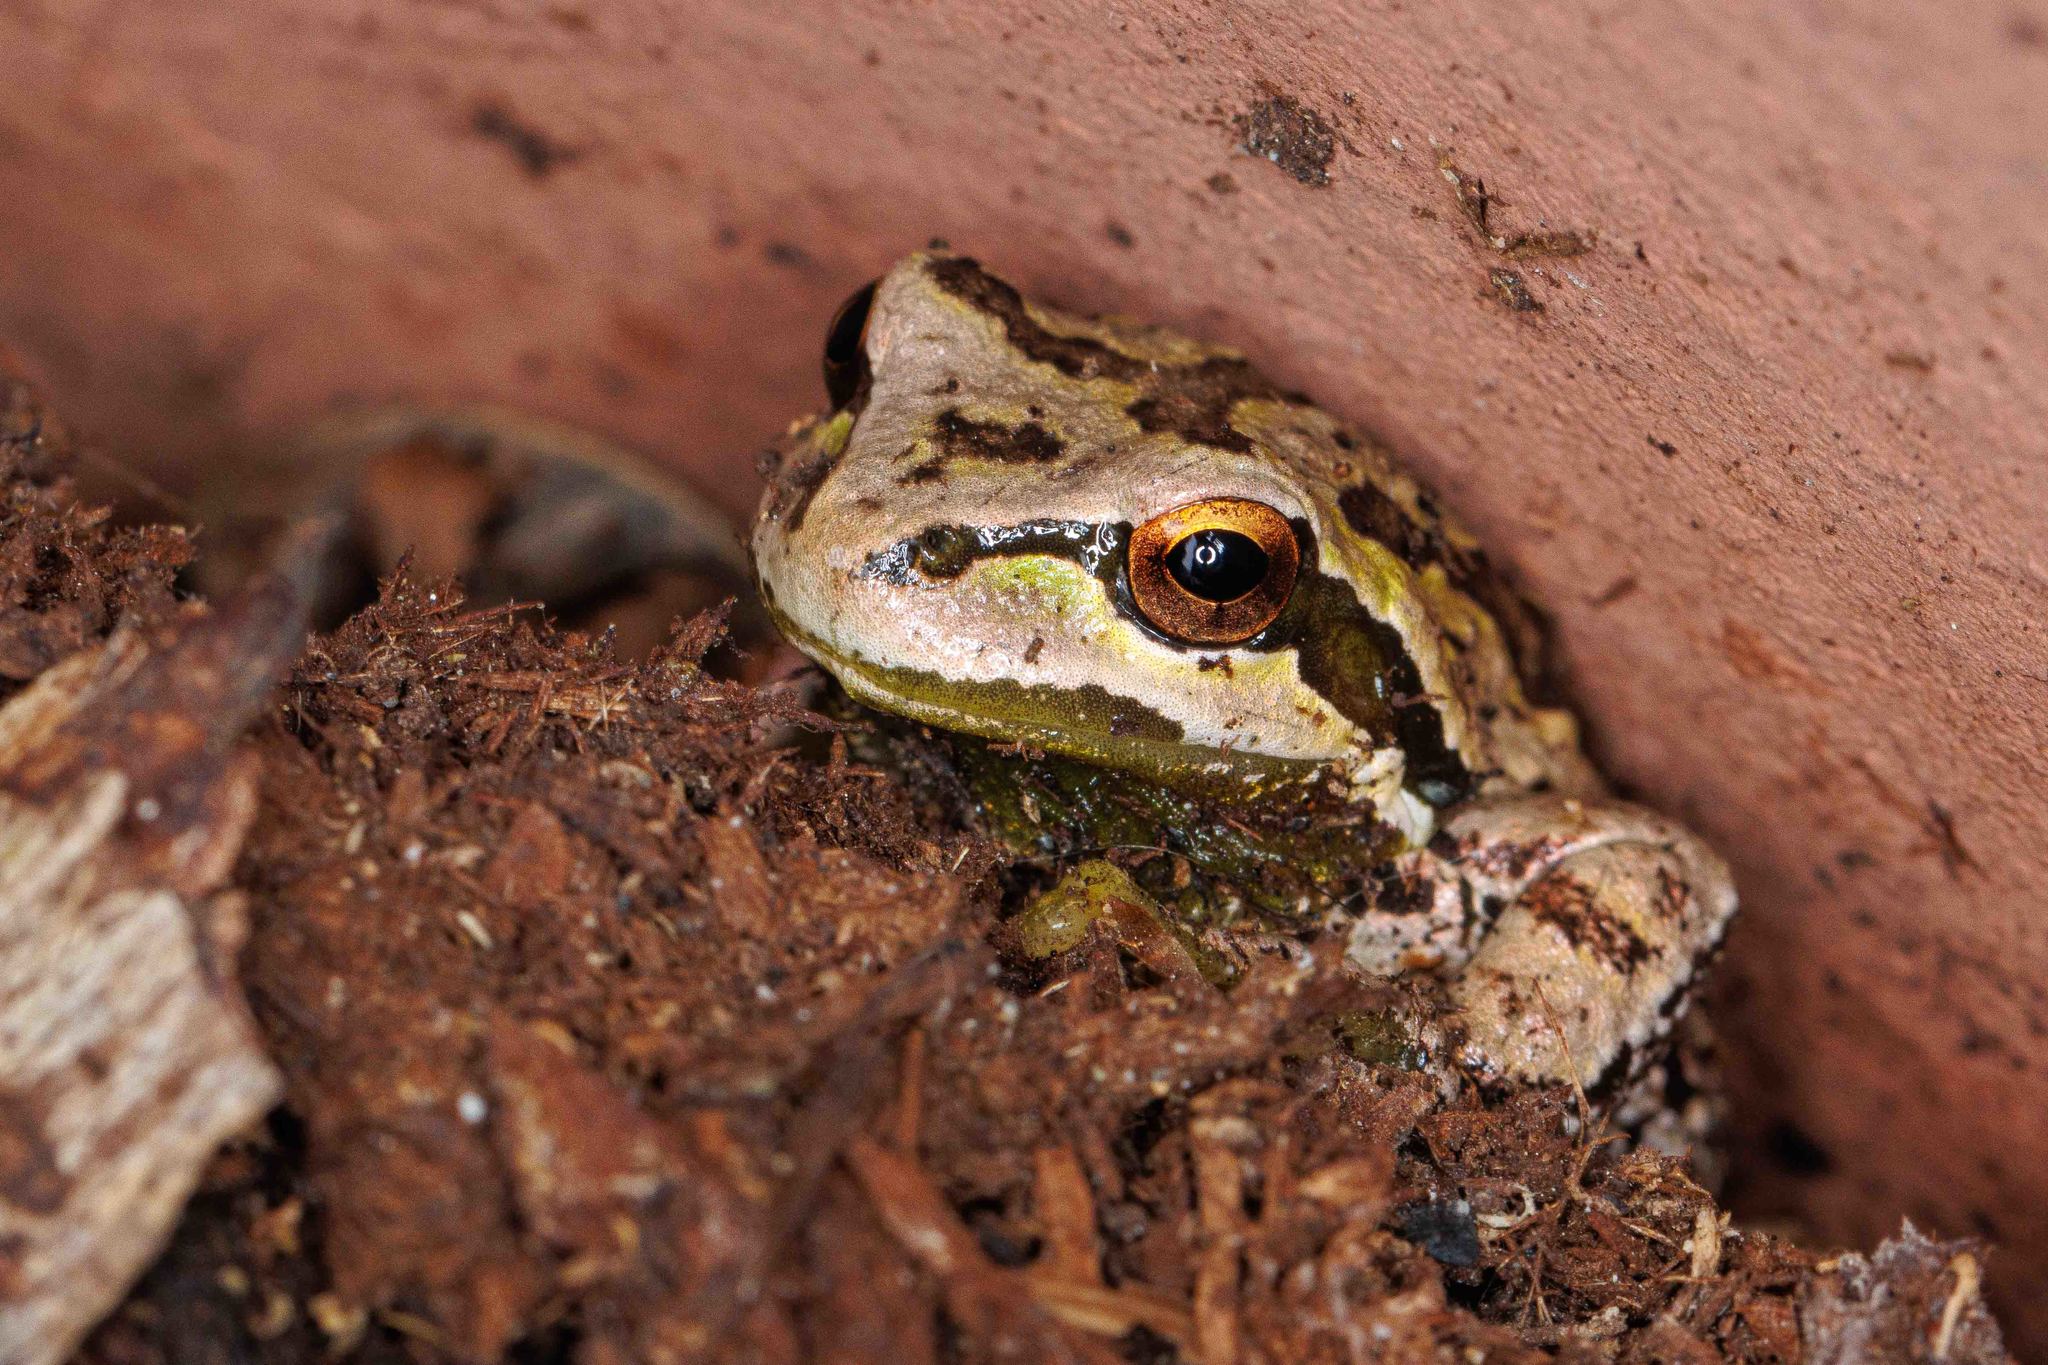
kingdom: Animalia
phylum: Chordata
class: Amphibia
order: Anura
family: Hylidae
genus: Pseudacris
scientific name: Pseudacris regilla
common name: Pacific chorus frog
